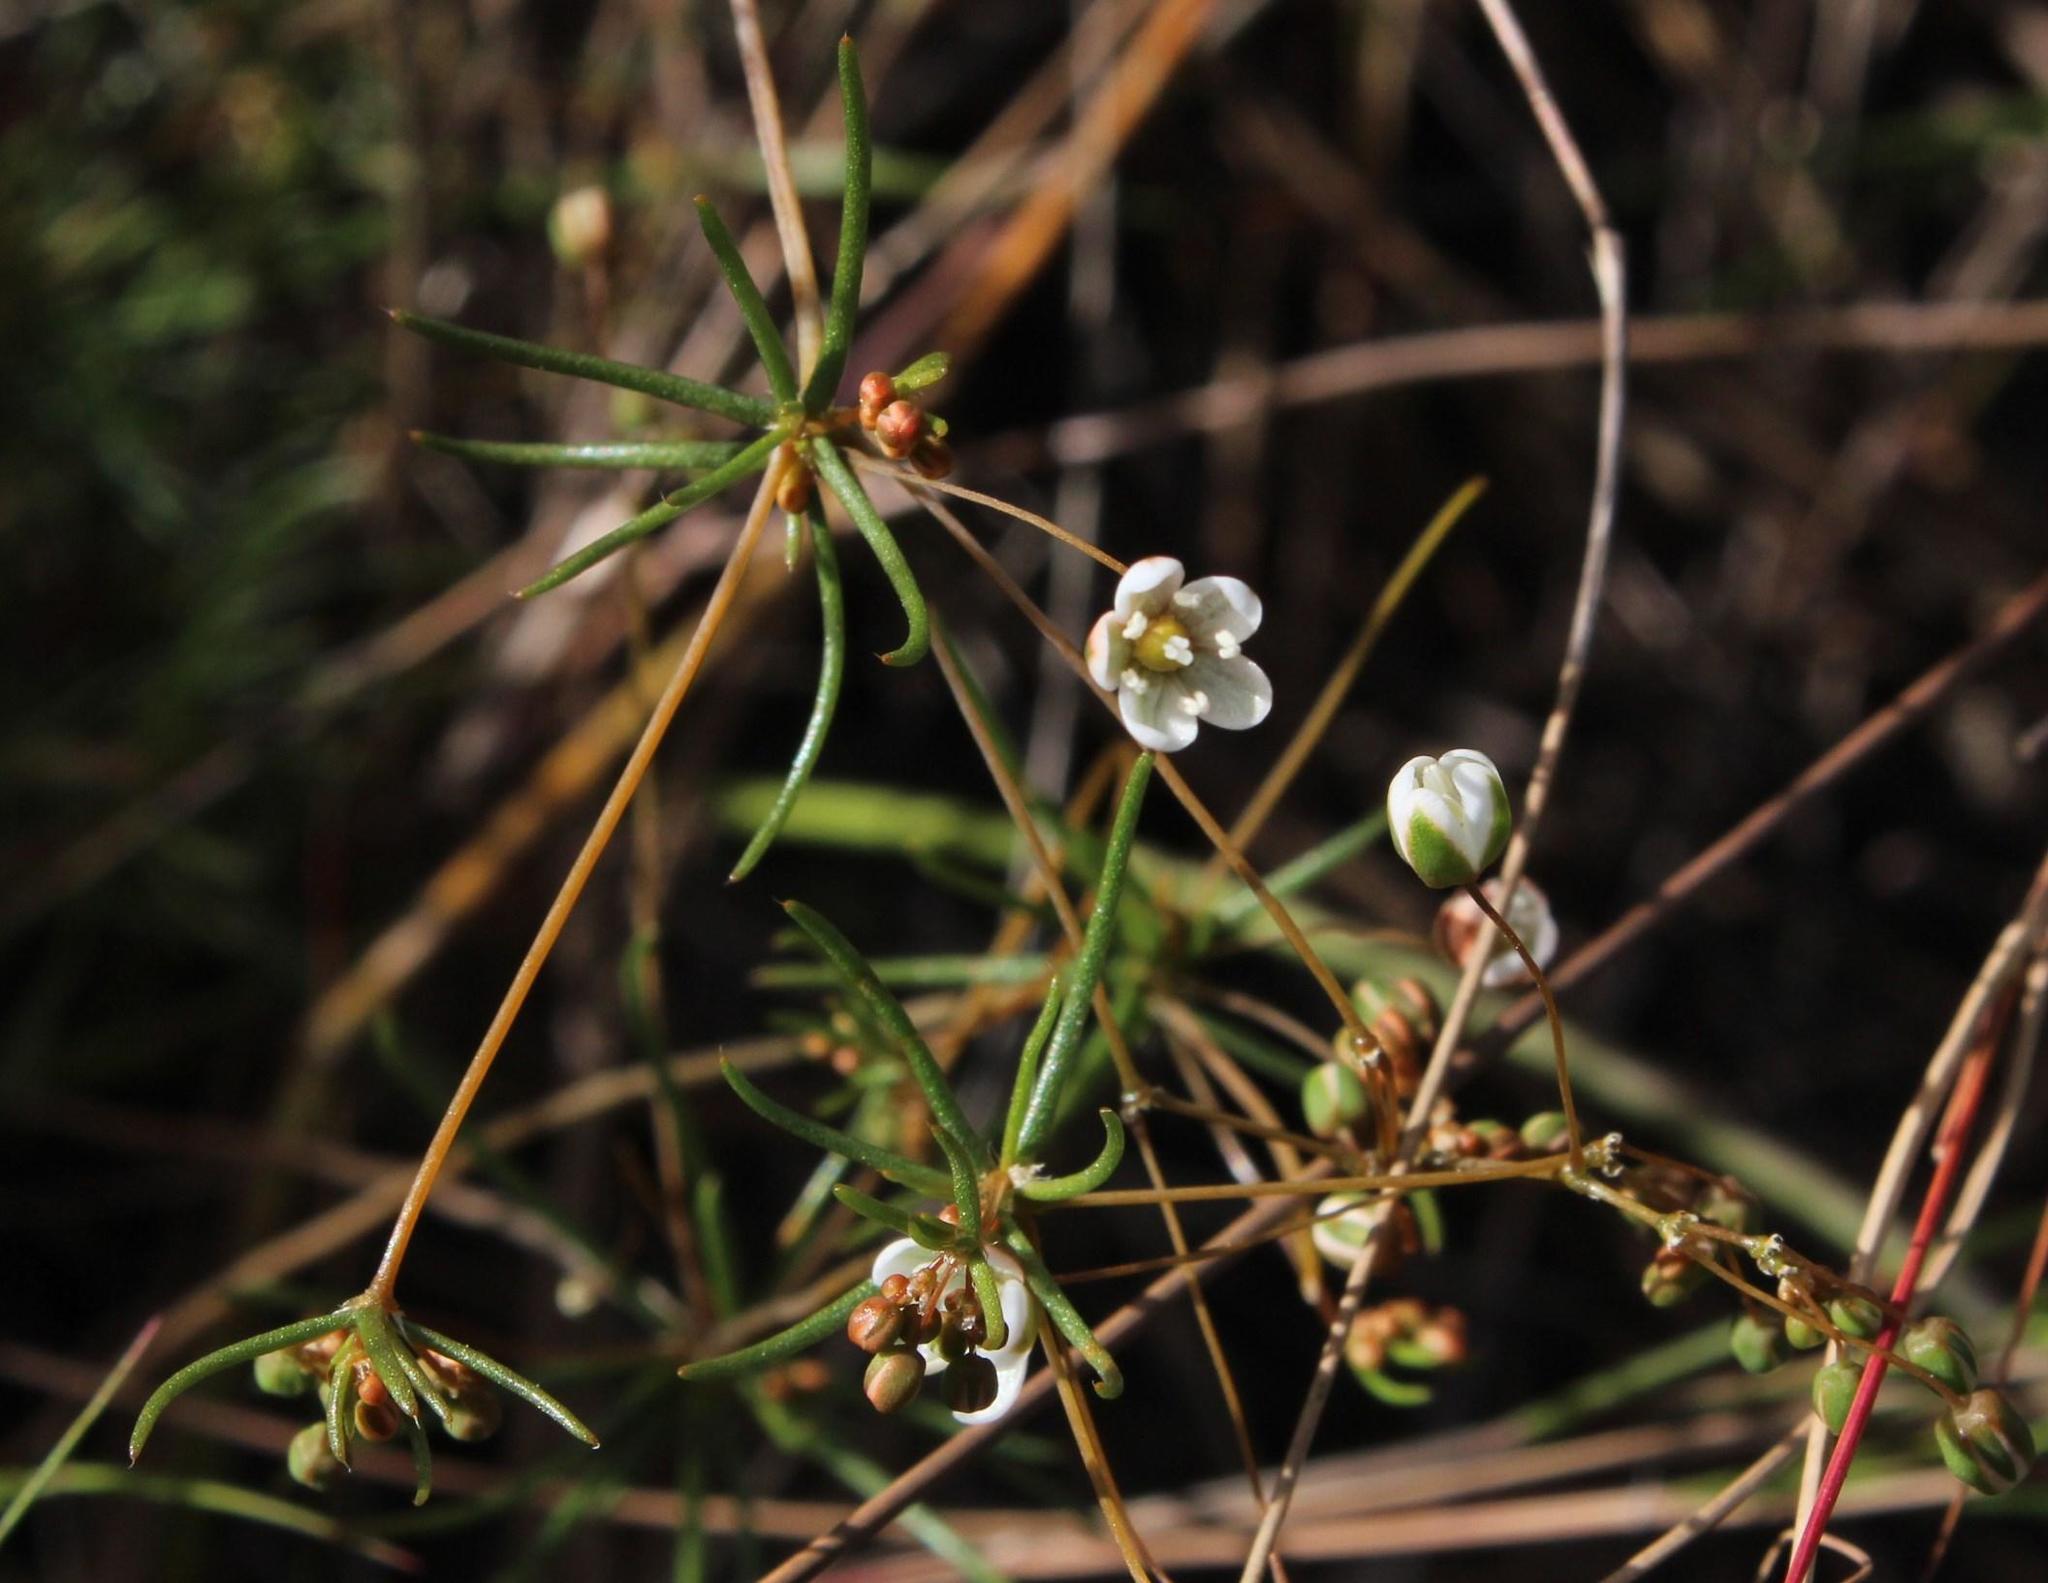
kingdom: Plantae
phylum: Tracheophyta
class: Magnoliopsida
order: Caryophyllales
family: Molluginaceae
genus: Pharnaceum
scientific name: Pharnaceum elongatum
